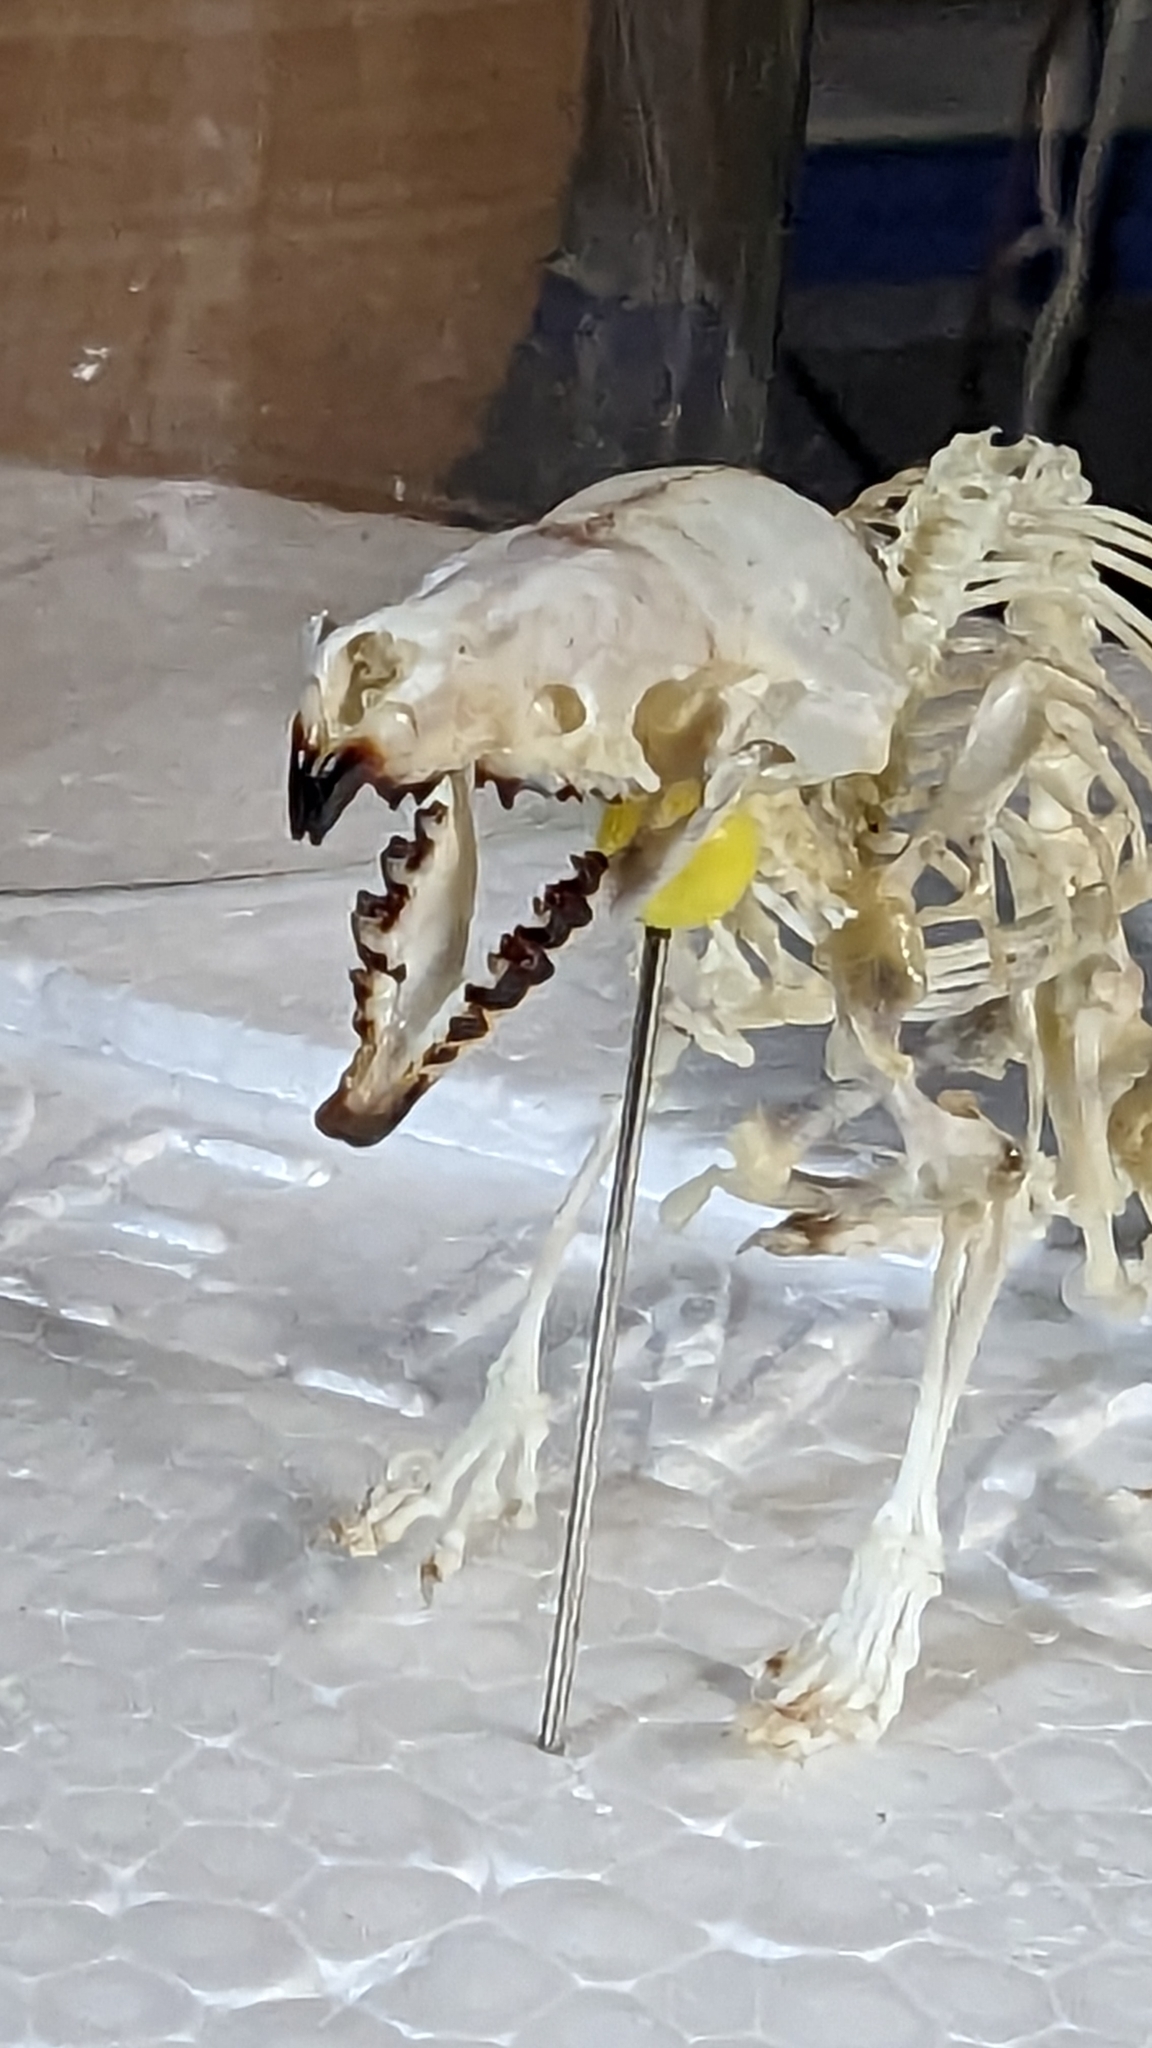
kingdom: Animalia
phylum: Chordata
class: Mammalia
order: Soricomorpha
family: Soricidae
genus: Blarina
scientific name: Blarina brevicauda
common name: Northern short-tailed shrew
